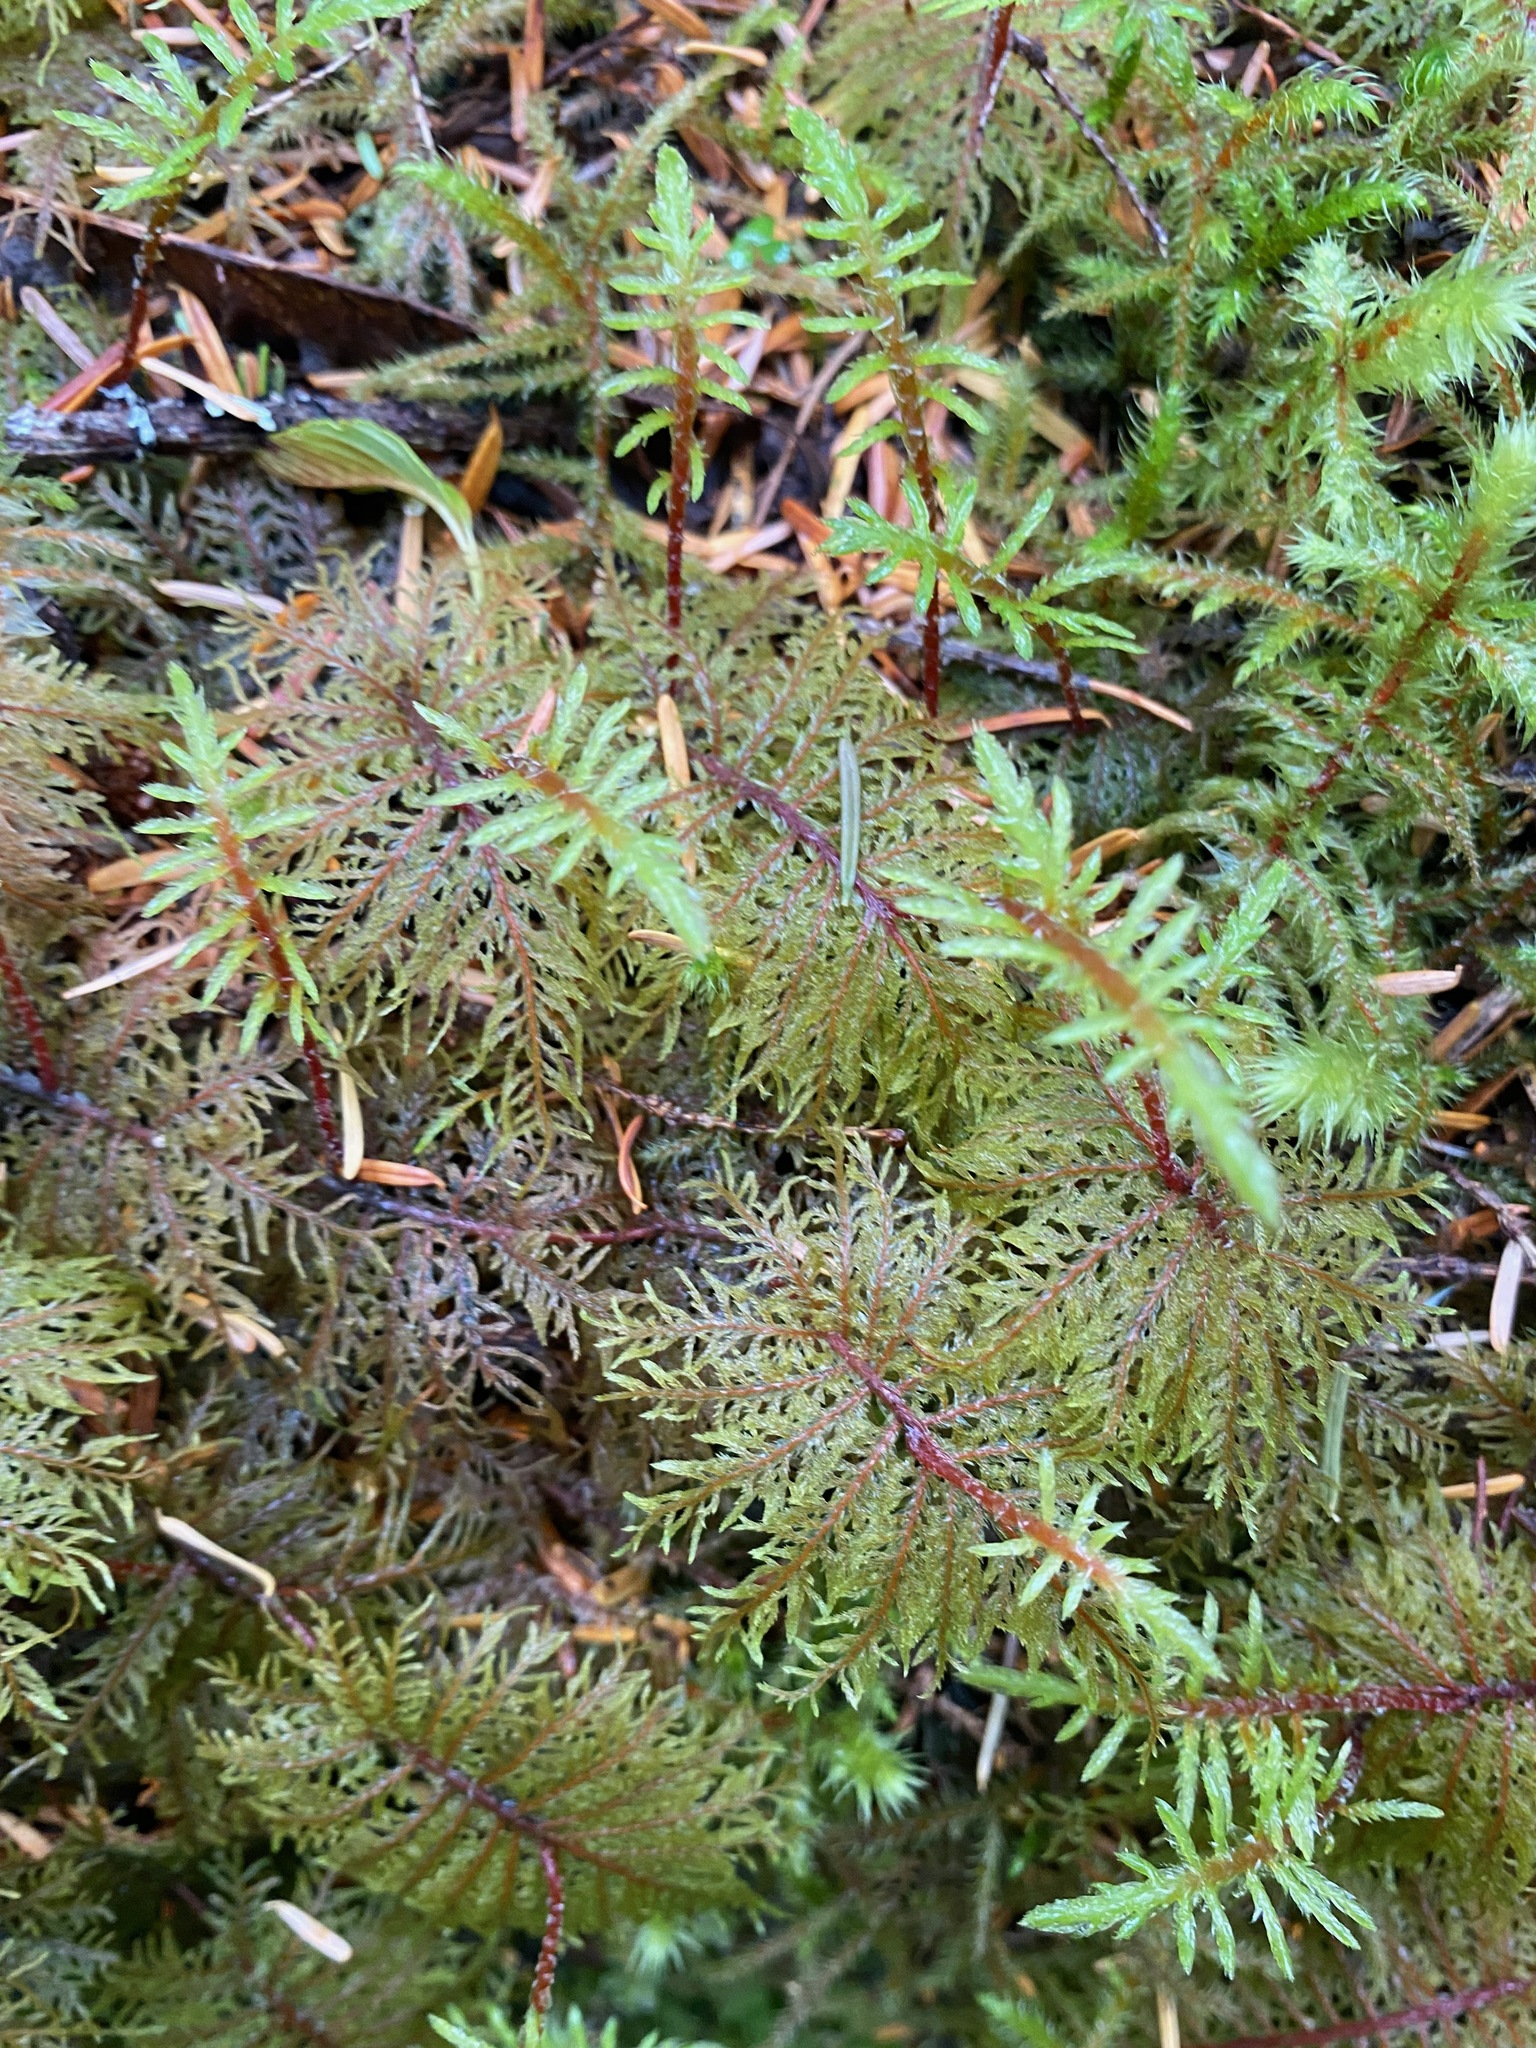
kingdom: Plantae
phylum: Bryophyta
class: Bryopsida
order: Hypnales
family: Hylocomiaceae
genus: Hylocomium
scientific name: Hylocomium splendens
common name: Stairstep moss
